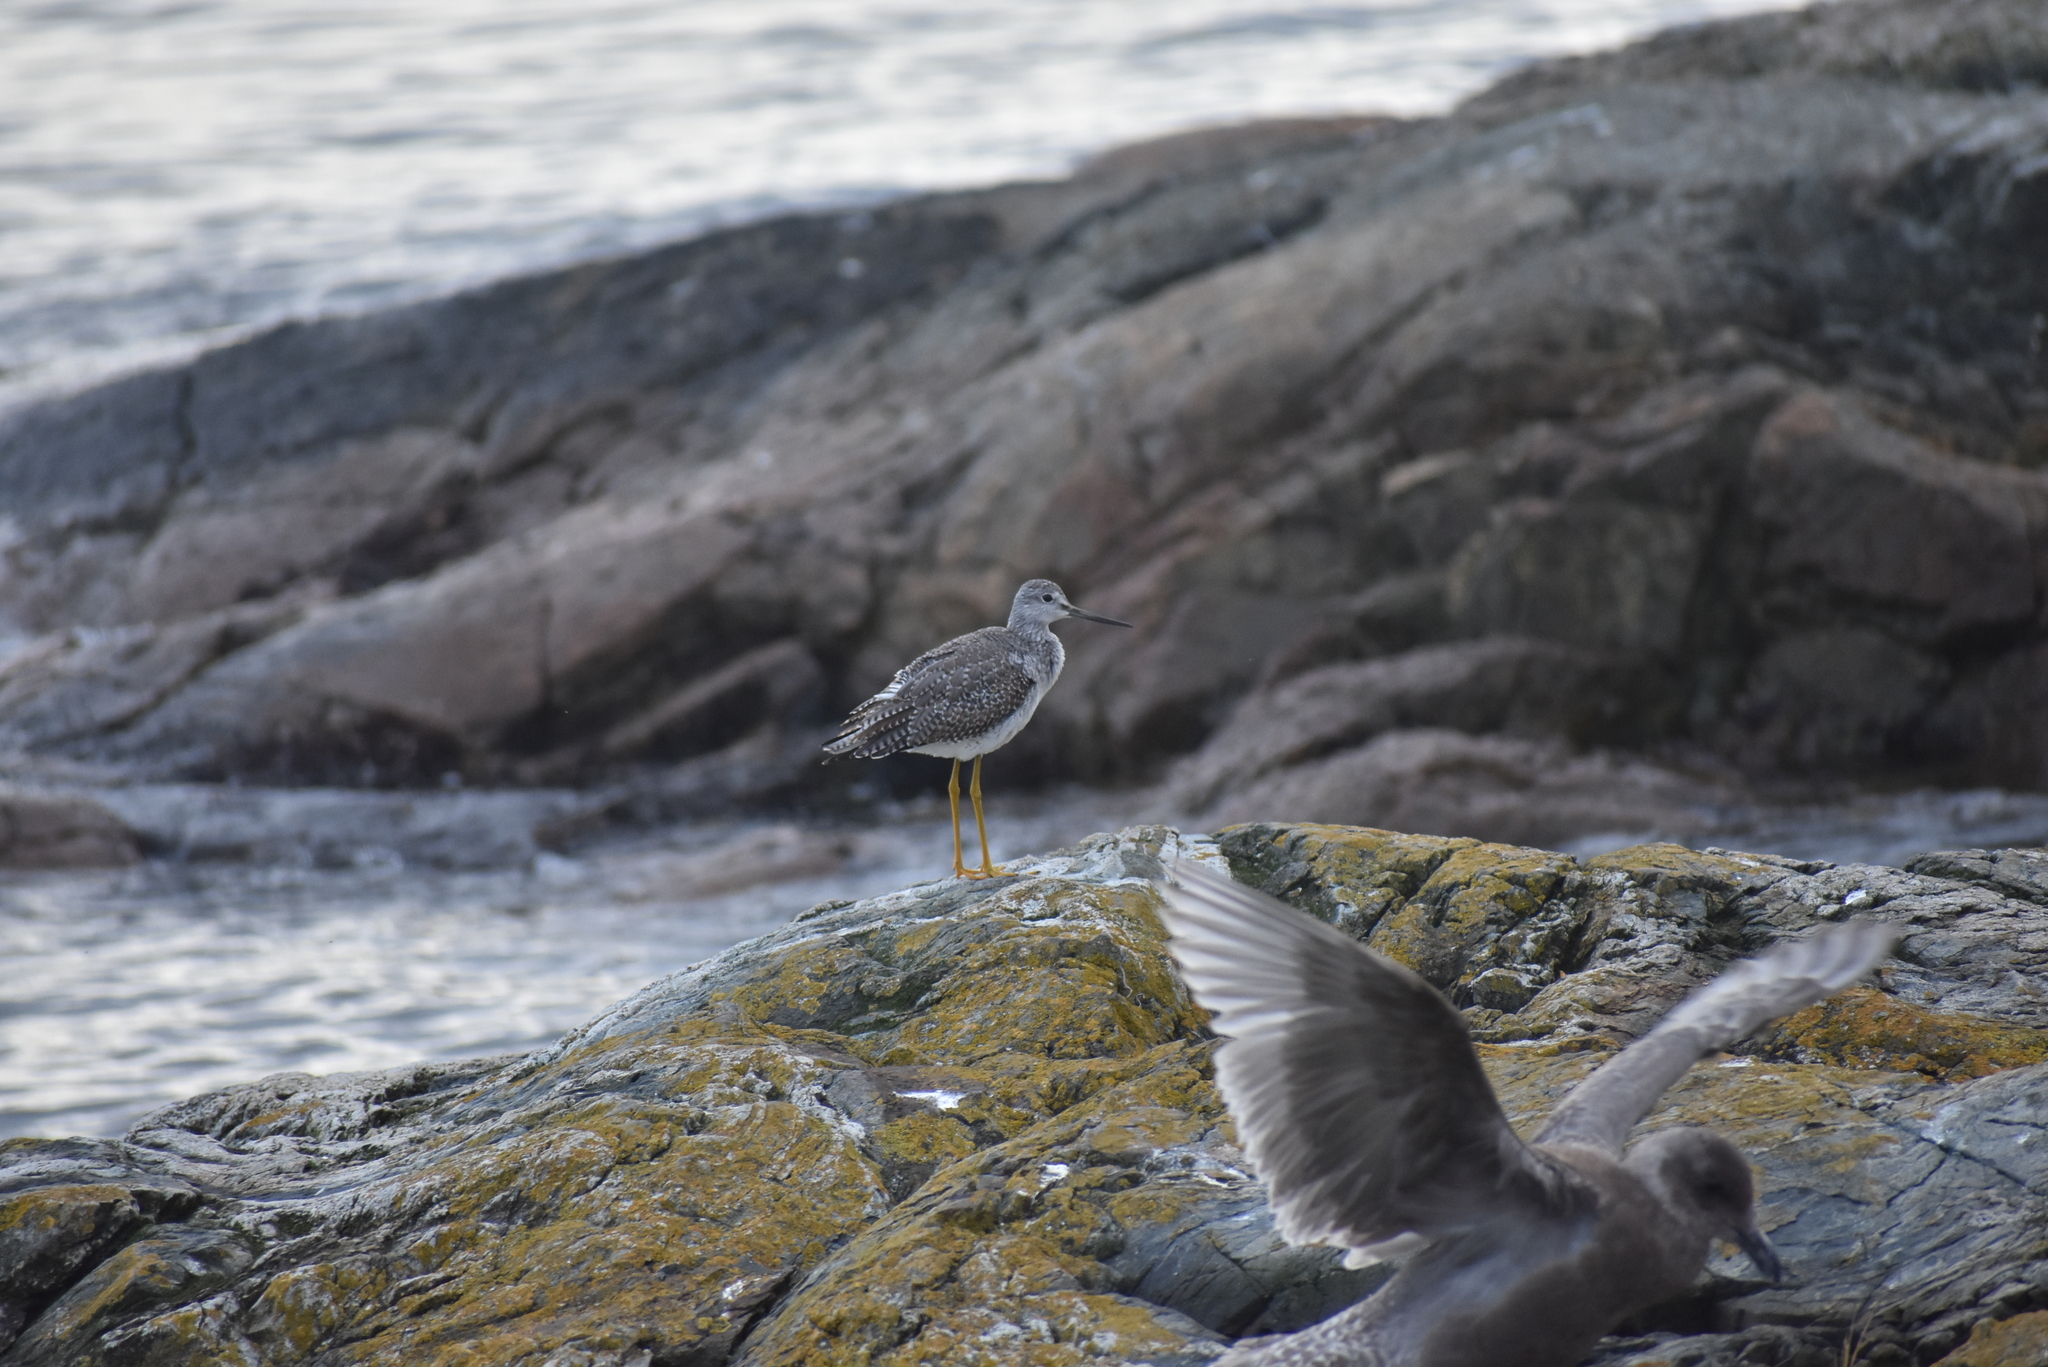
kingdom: Animalia
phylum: Chordata
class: Aves
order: Charadriiformes
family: Scolopacidae
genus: Tringa
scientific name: Tringa melanoleuca
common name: Greater yellowlegs
